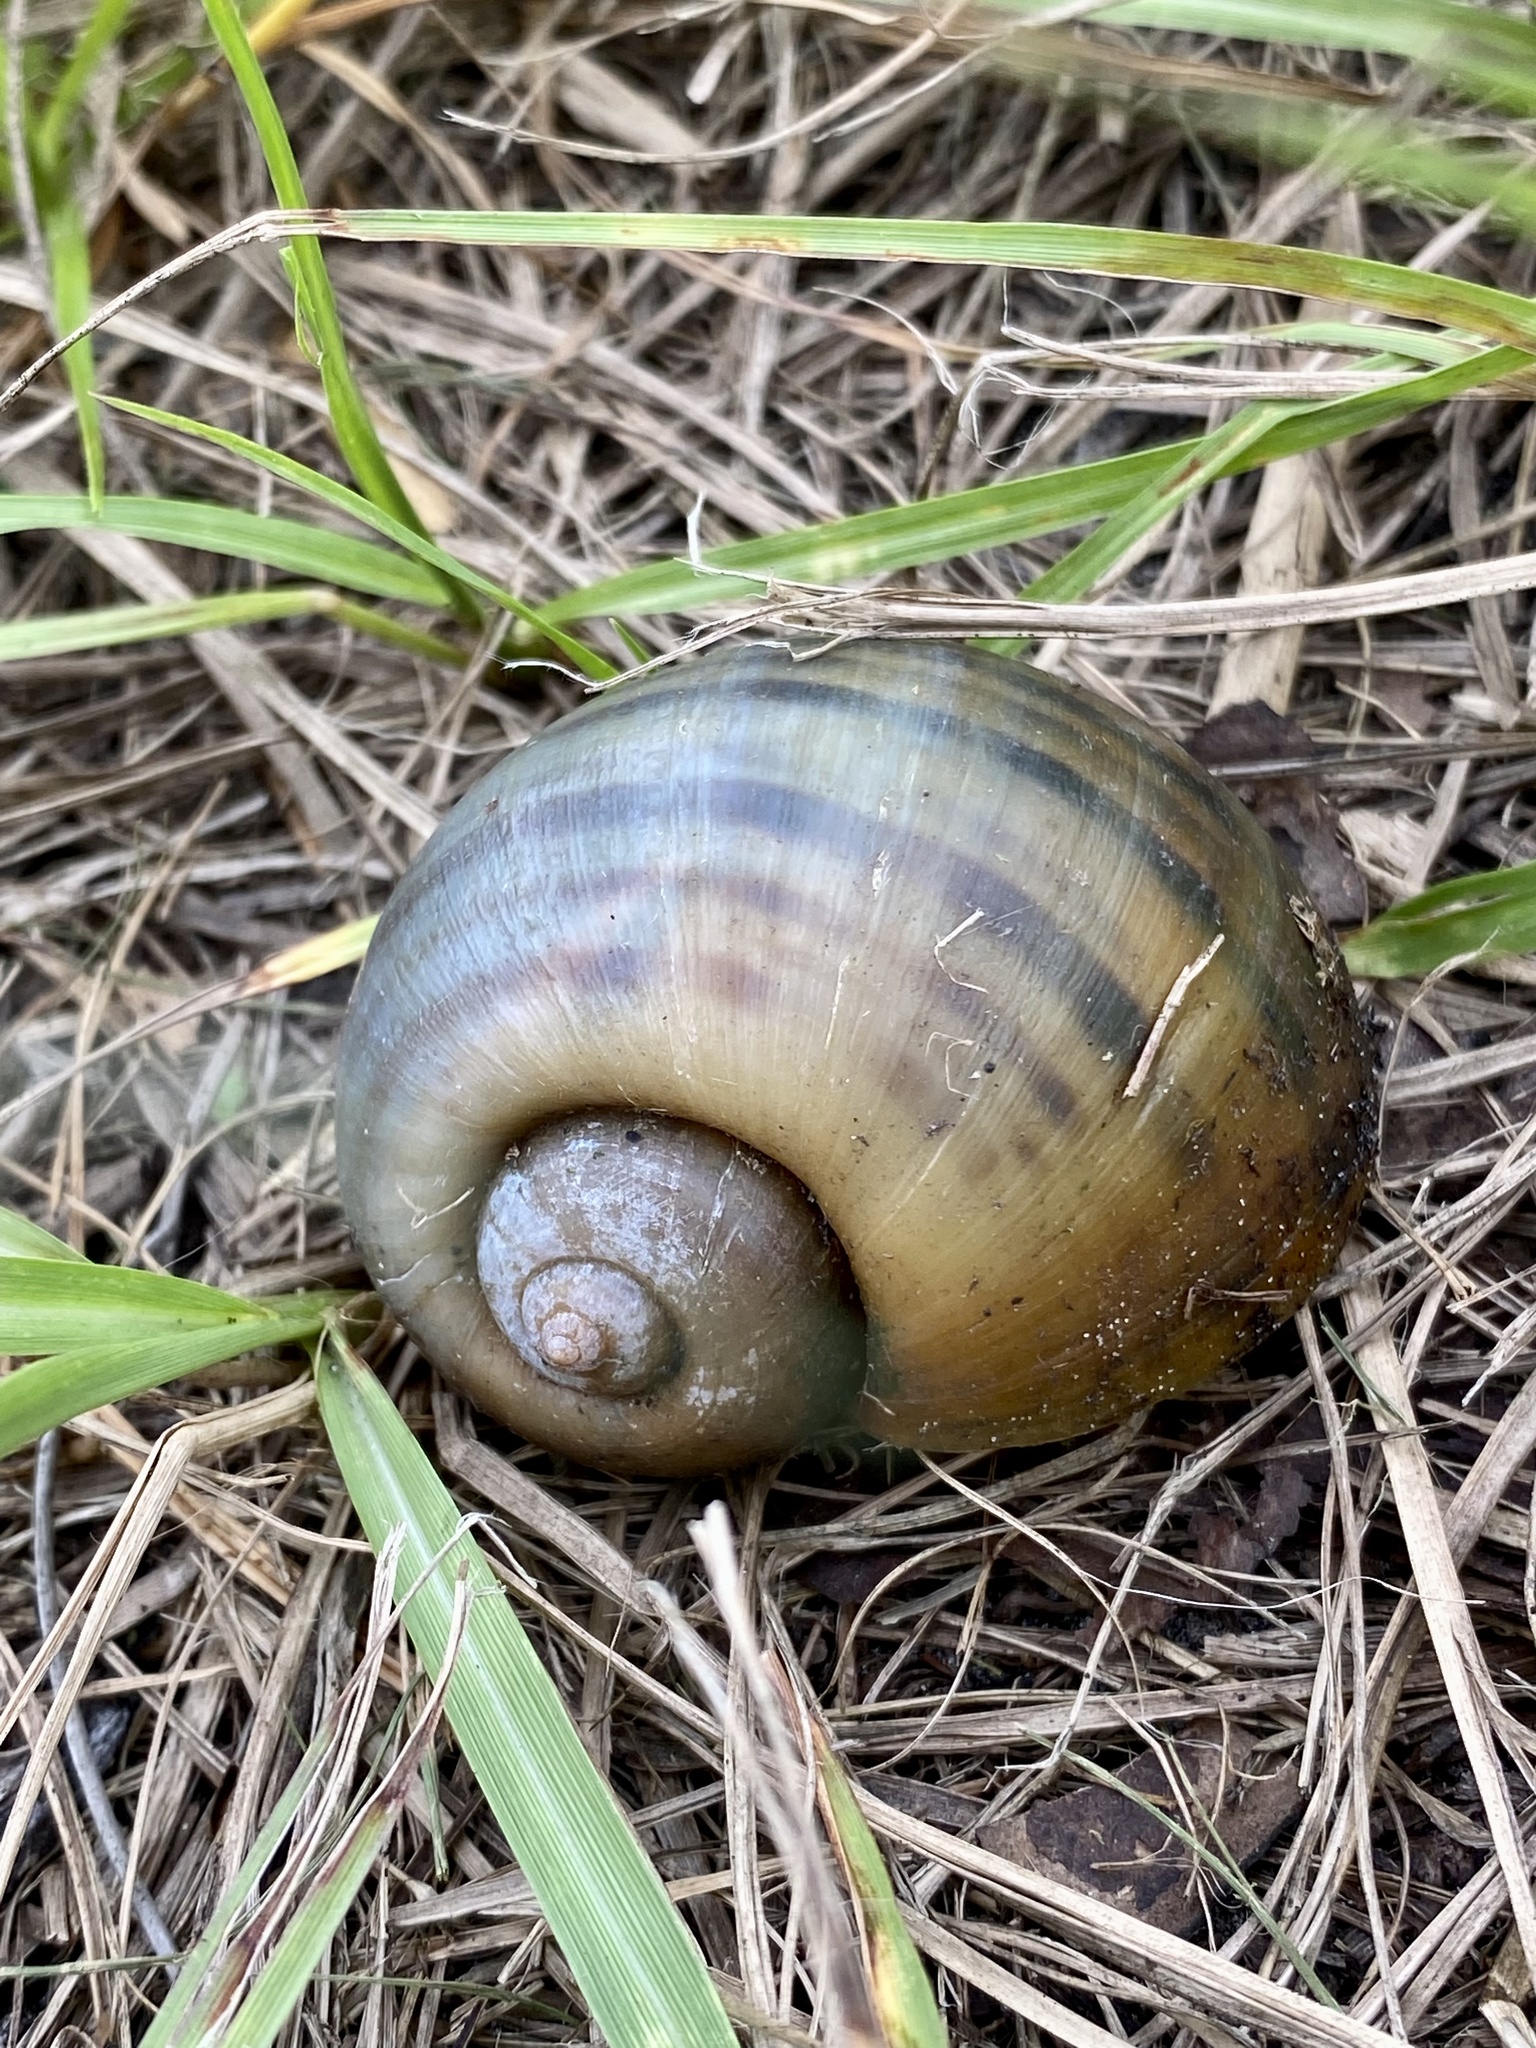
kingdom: Animalia
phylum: Mollusca
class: Gastropoda
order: Architaenioglossa
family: Ampullariidae
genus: Pomacea
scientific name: Pomacea maculata
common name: Giant applesnail
